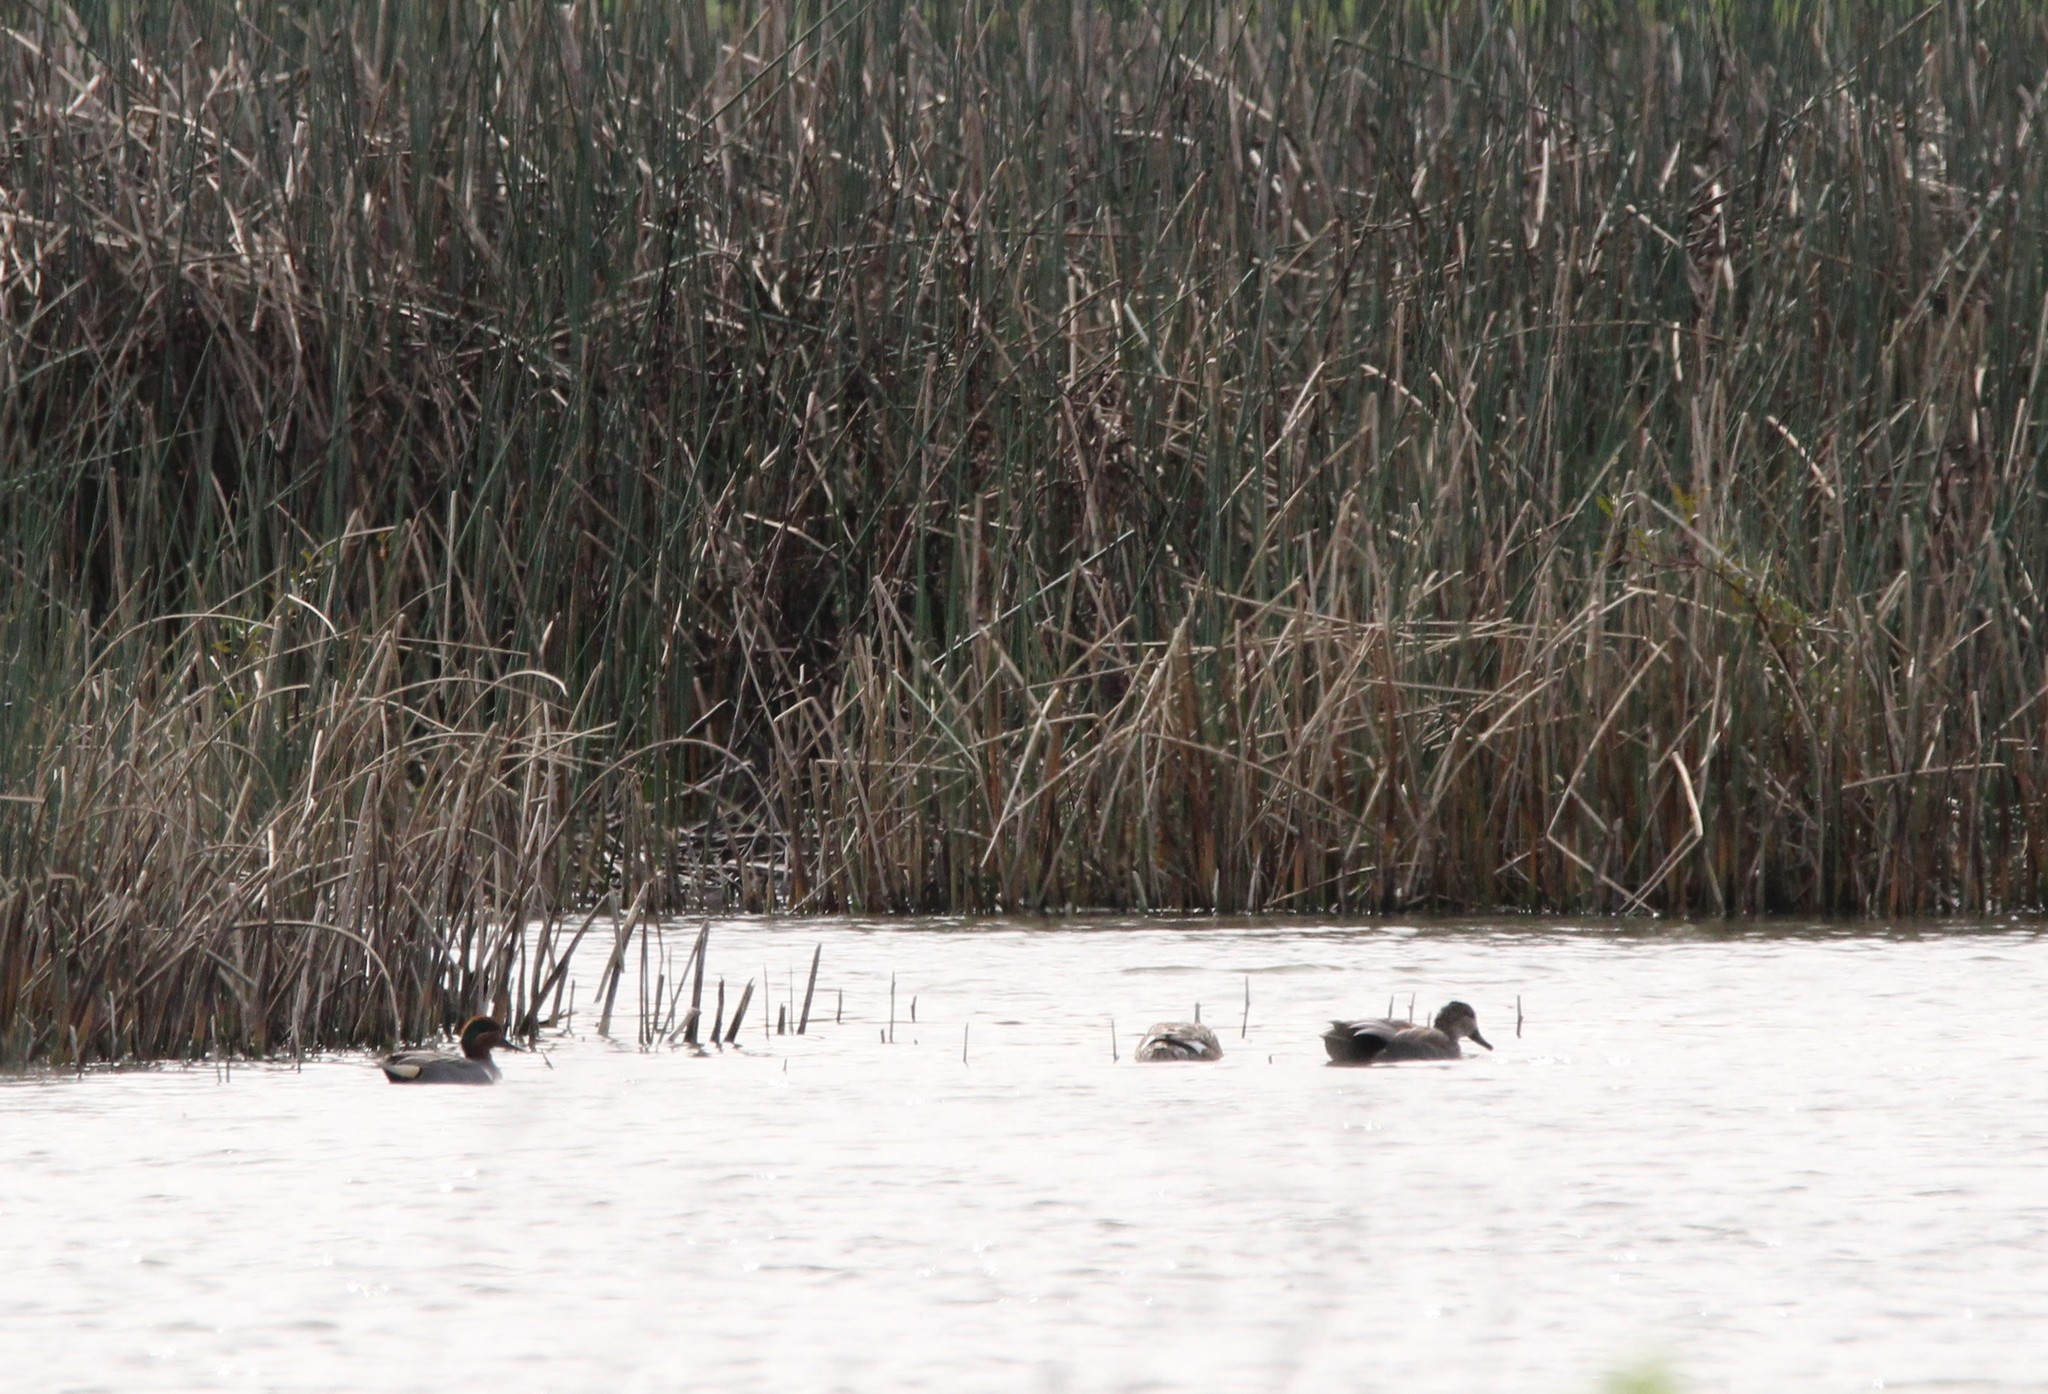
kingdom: Animalia
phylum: Chordata
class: Aves
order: Anseriformes
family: Anatidae
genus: Anas
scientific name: Anas crecca
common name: Eurasian teal
